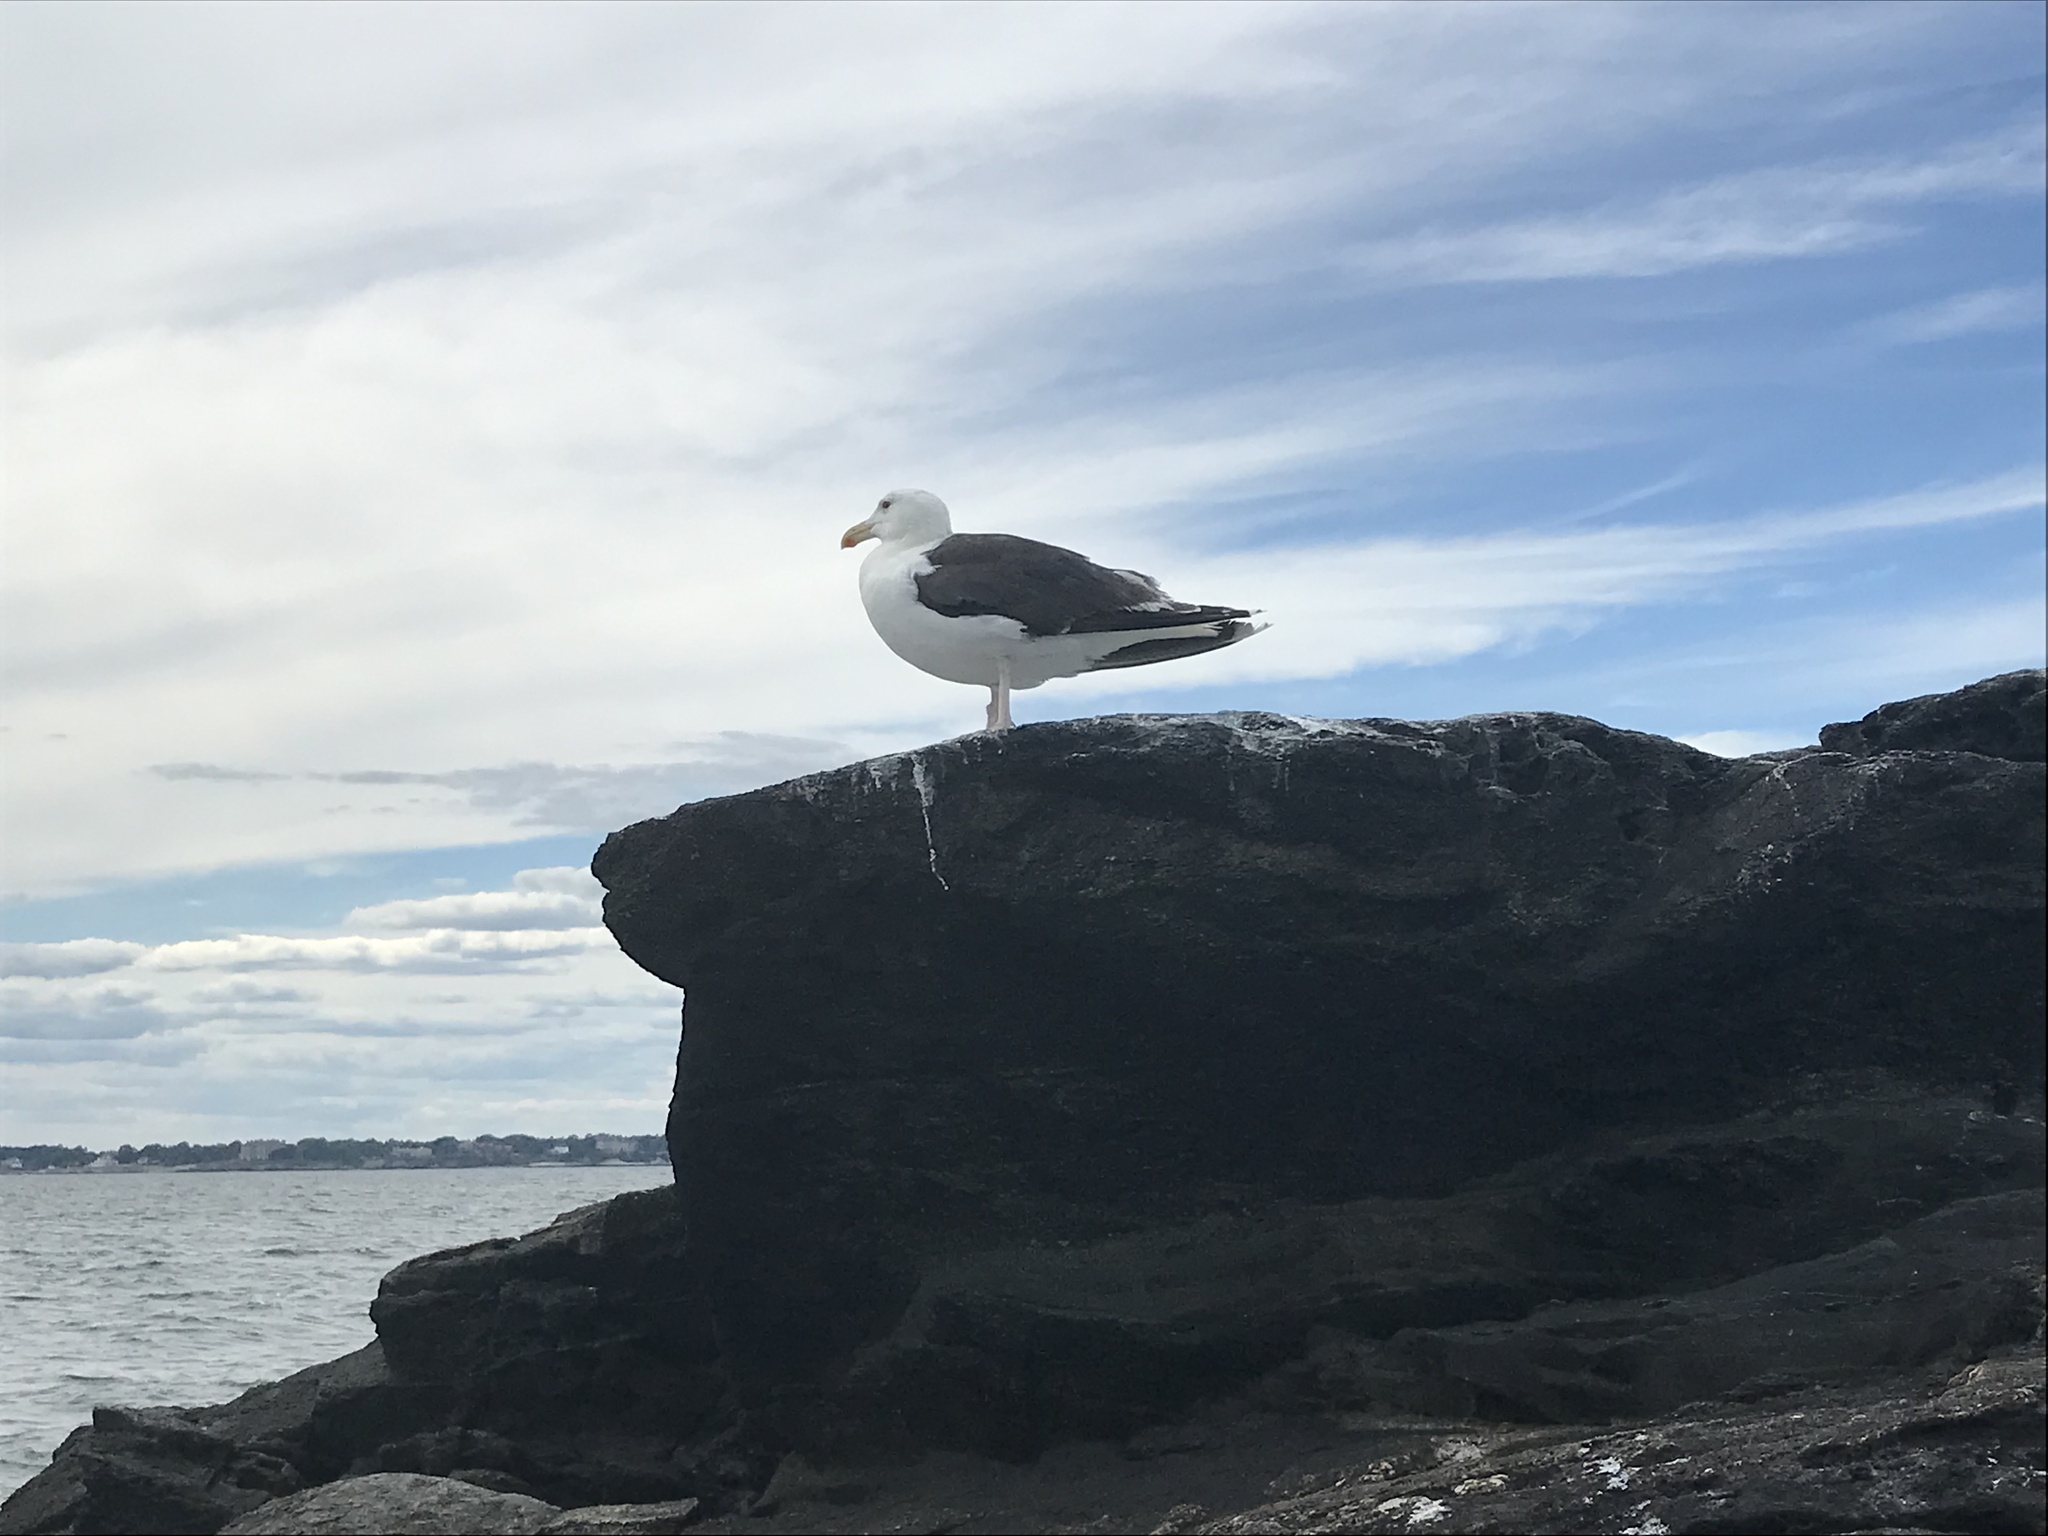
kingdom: Animalia
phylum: Chordata
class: Aves
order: Charadriiformes
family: Laridae
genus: Larus
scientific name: Larus marinus
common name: Great black-backed gull
